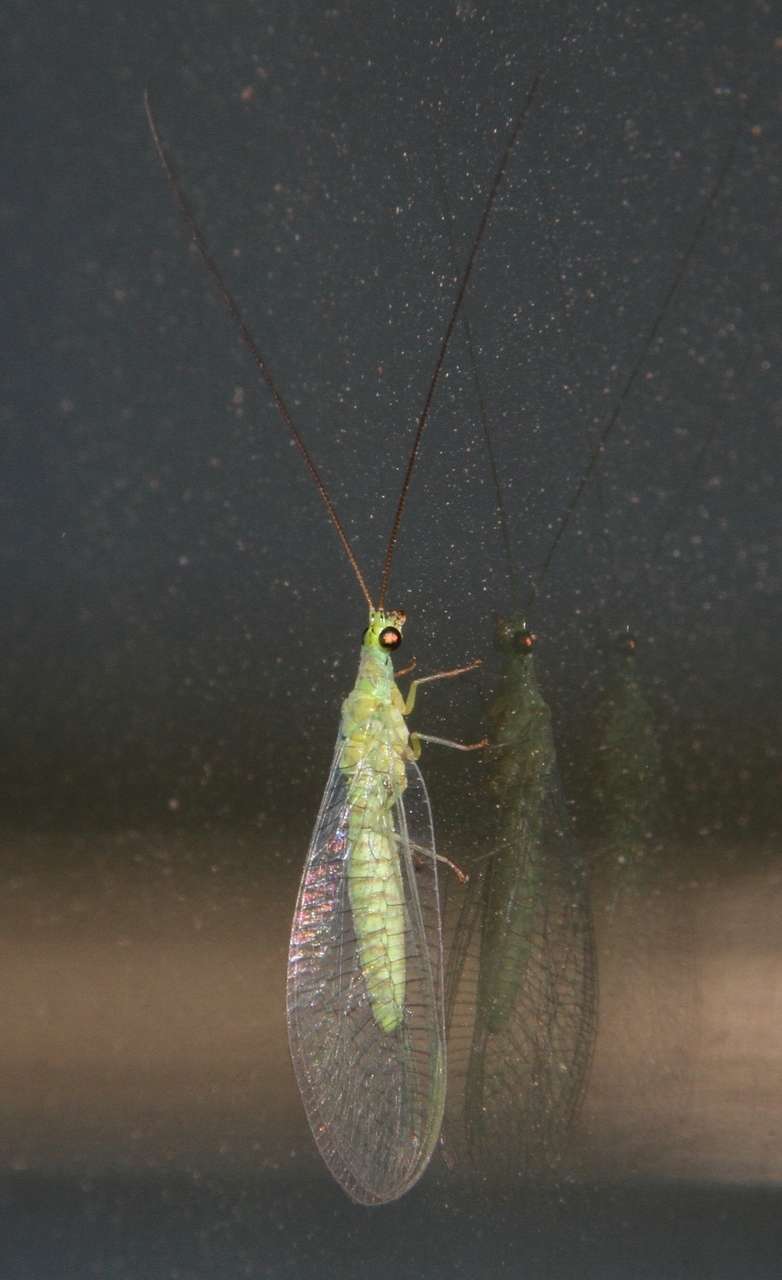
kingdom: Animalia
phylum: Arthropoda
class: Insecta
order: Neuroptera
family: Chrysopidae
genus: Mallada
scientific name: Mallada signatus
